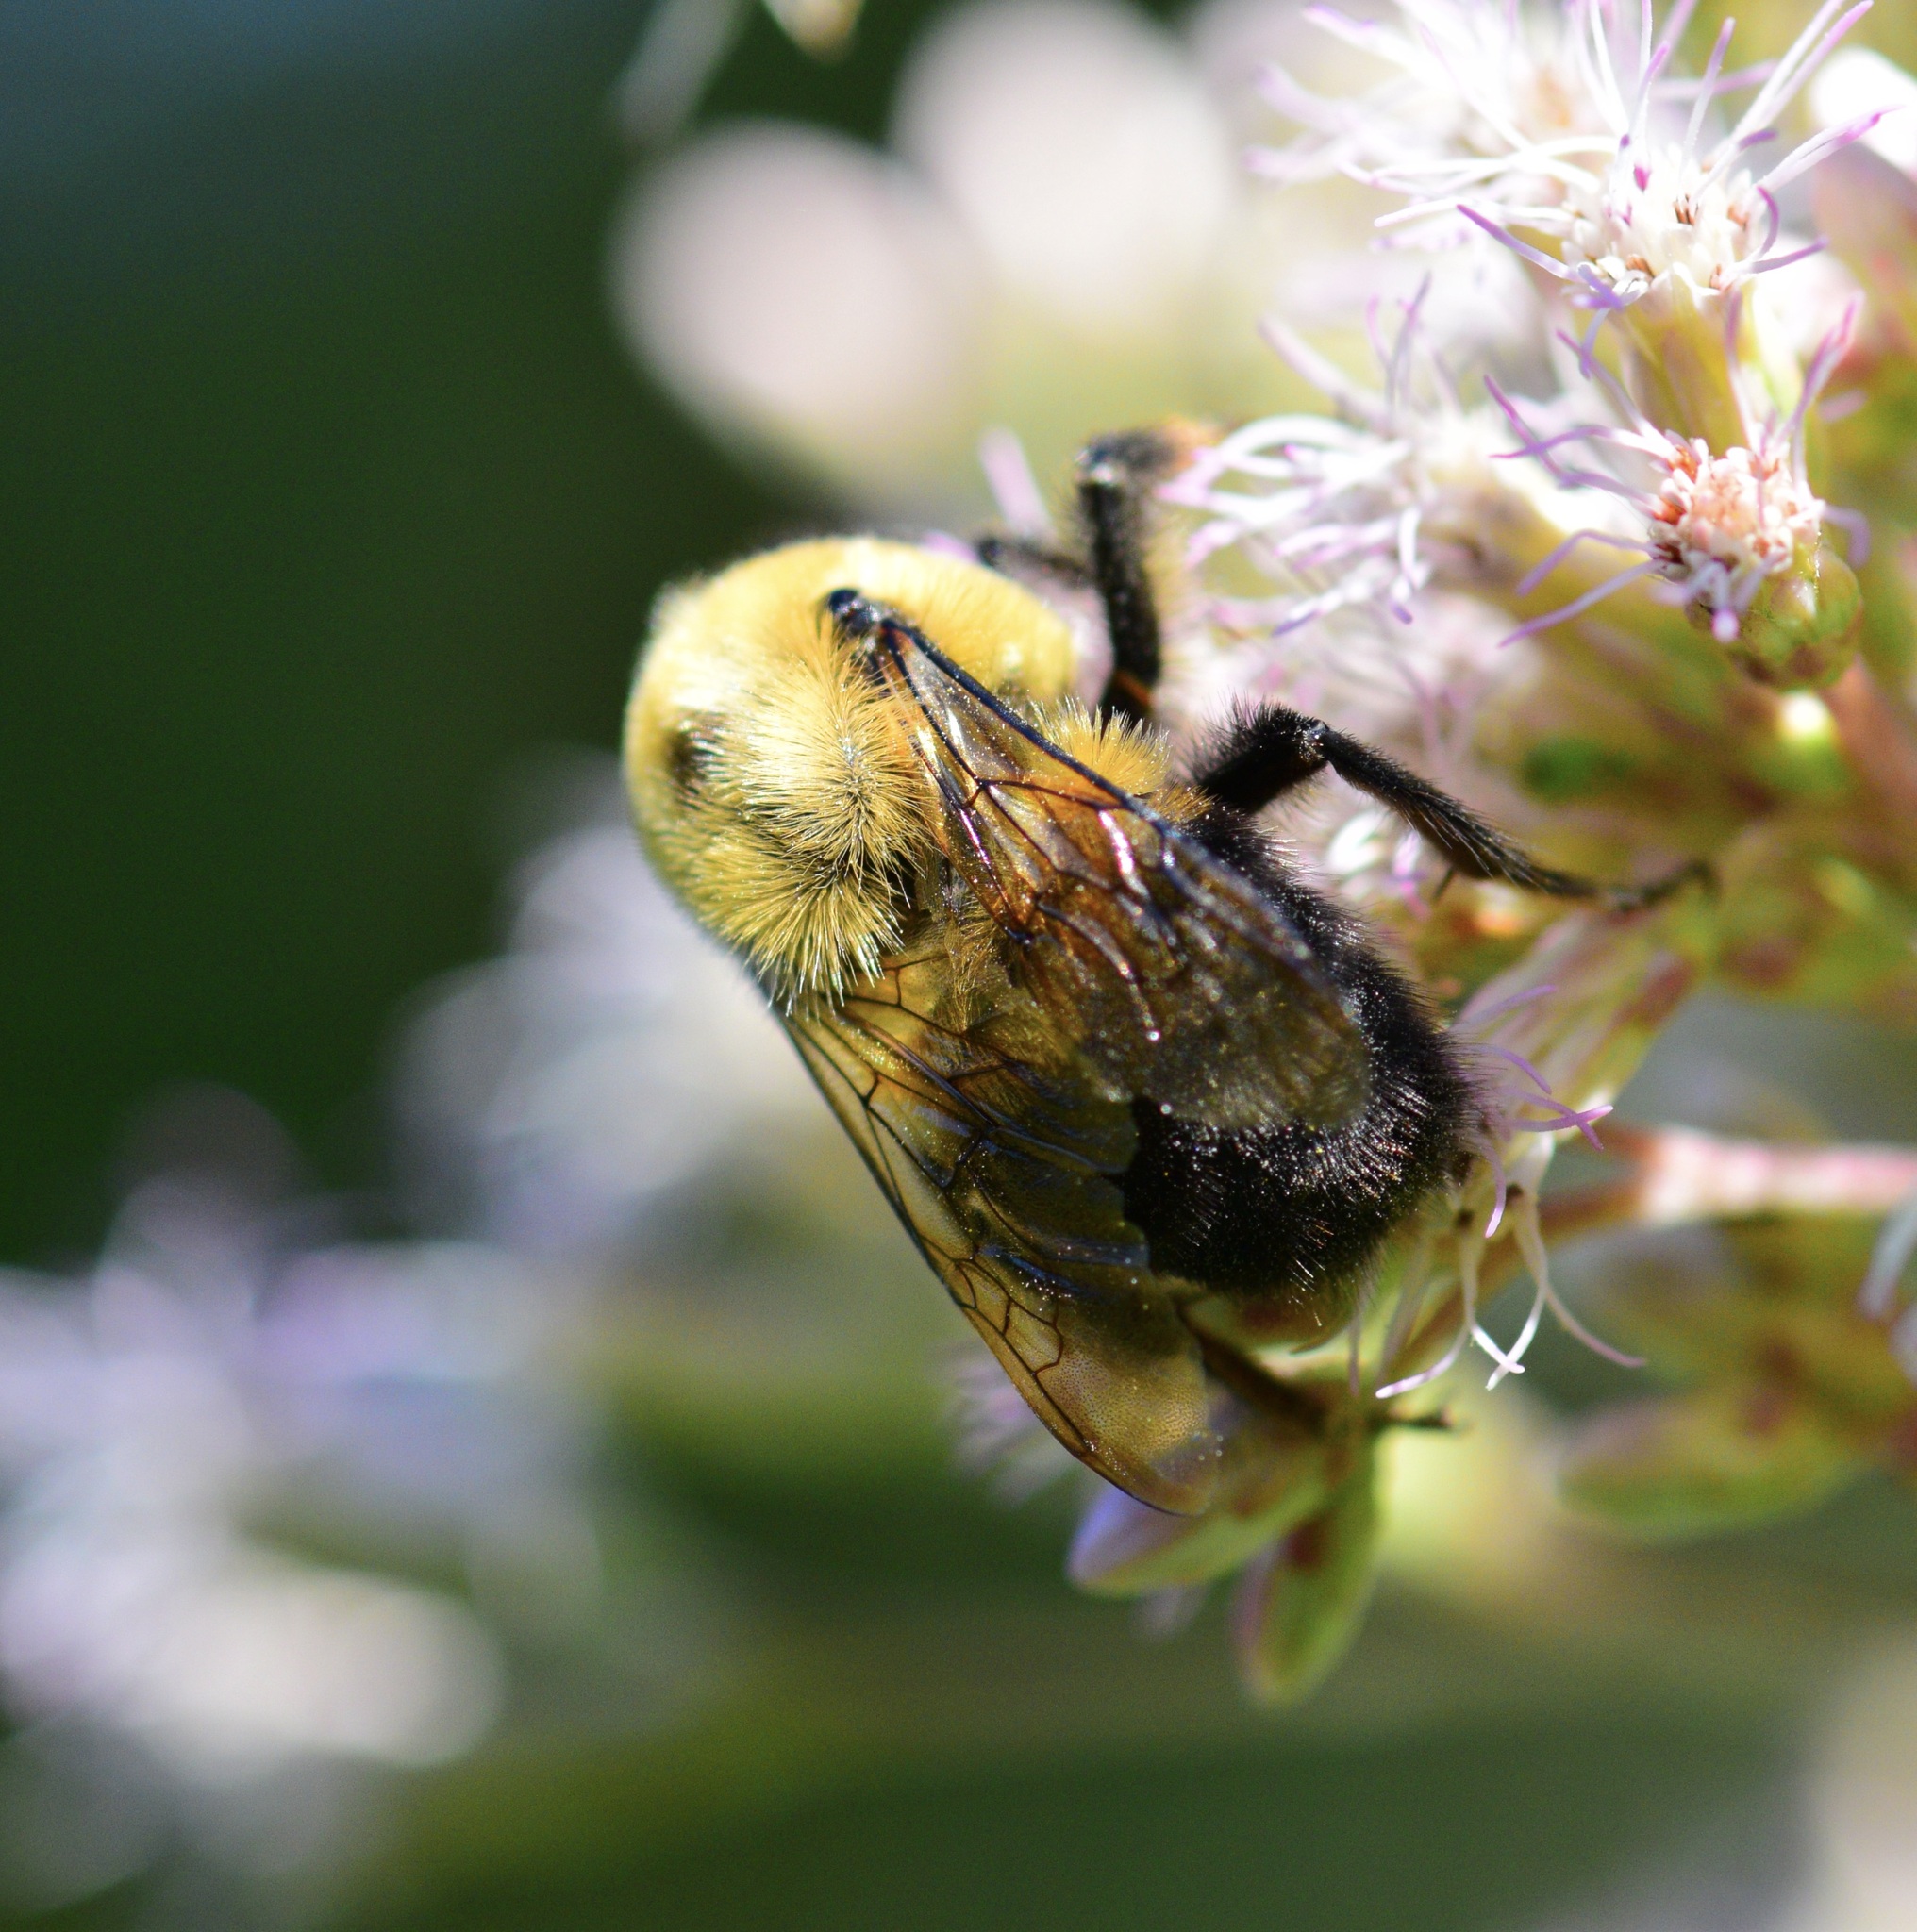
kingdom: Animalia
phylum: Arthropoda
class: Insecta
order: Hymenoptera
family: Apidae
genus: Bombus
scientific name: Bombus griseocollis
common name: Brown-belted bumble bee
